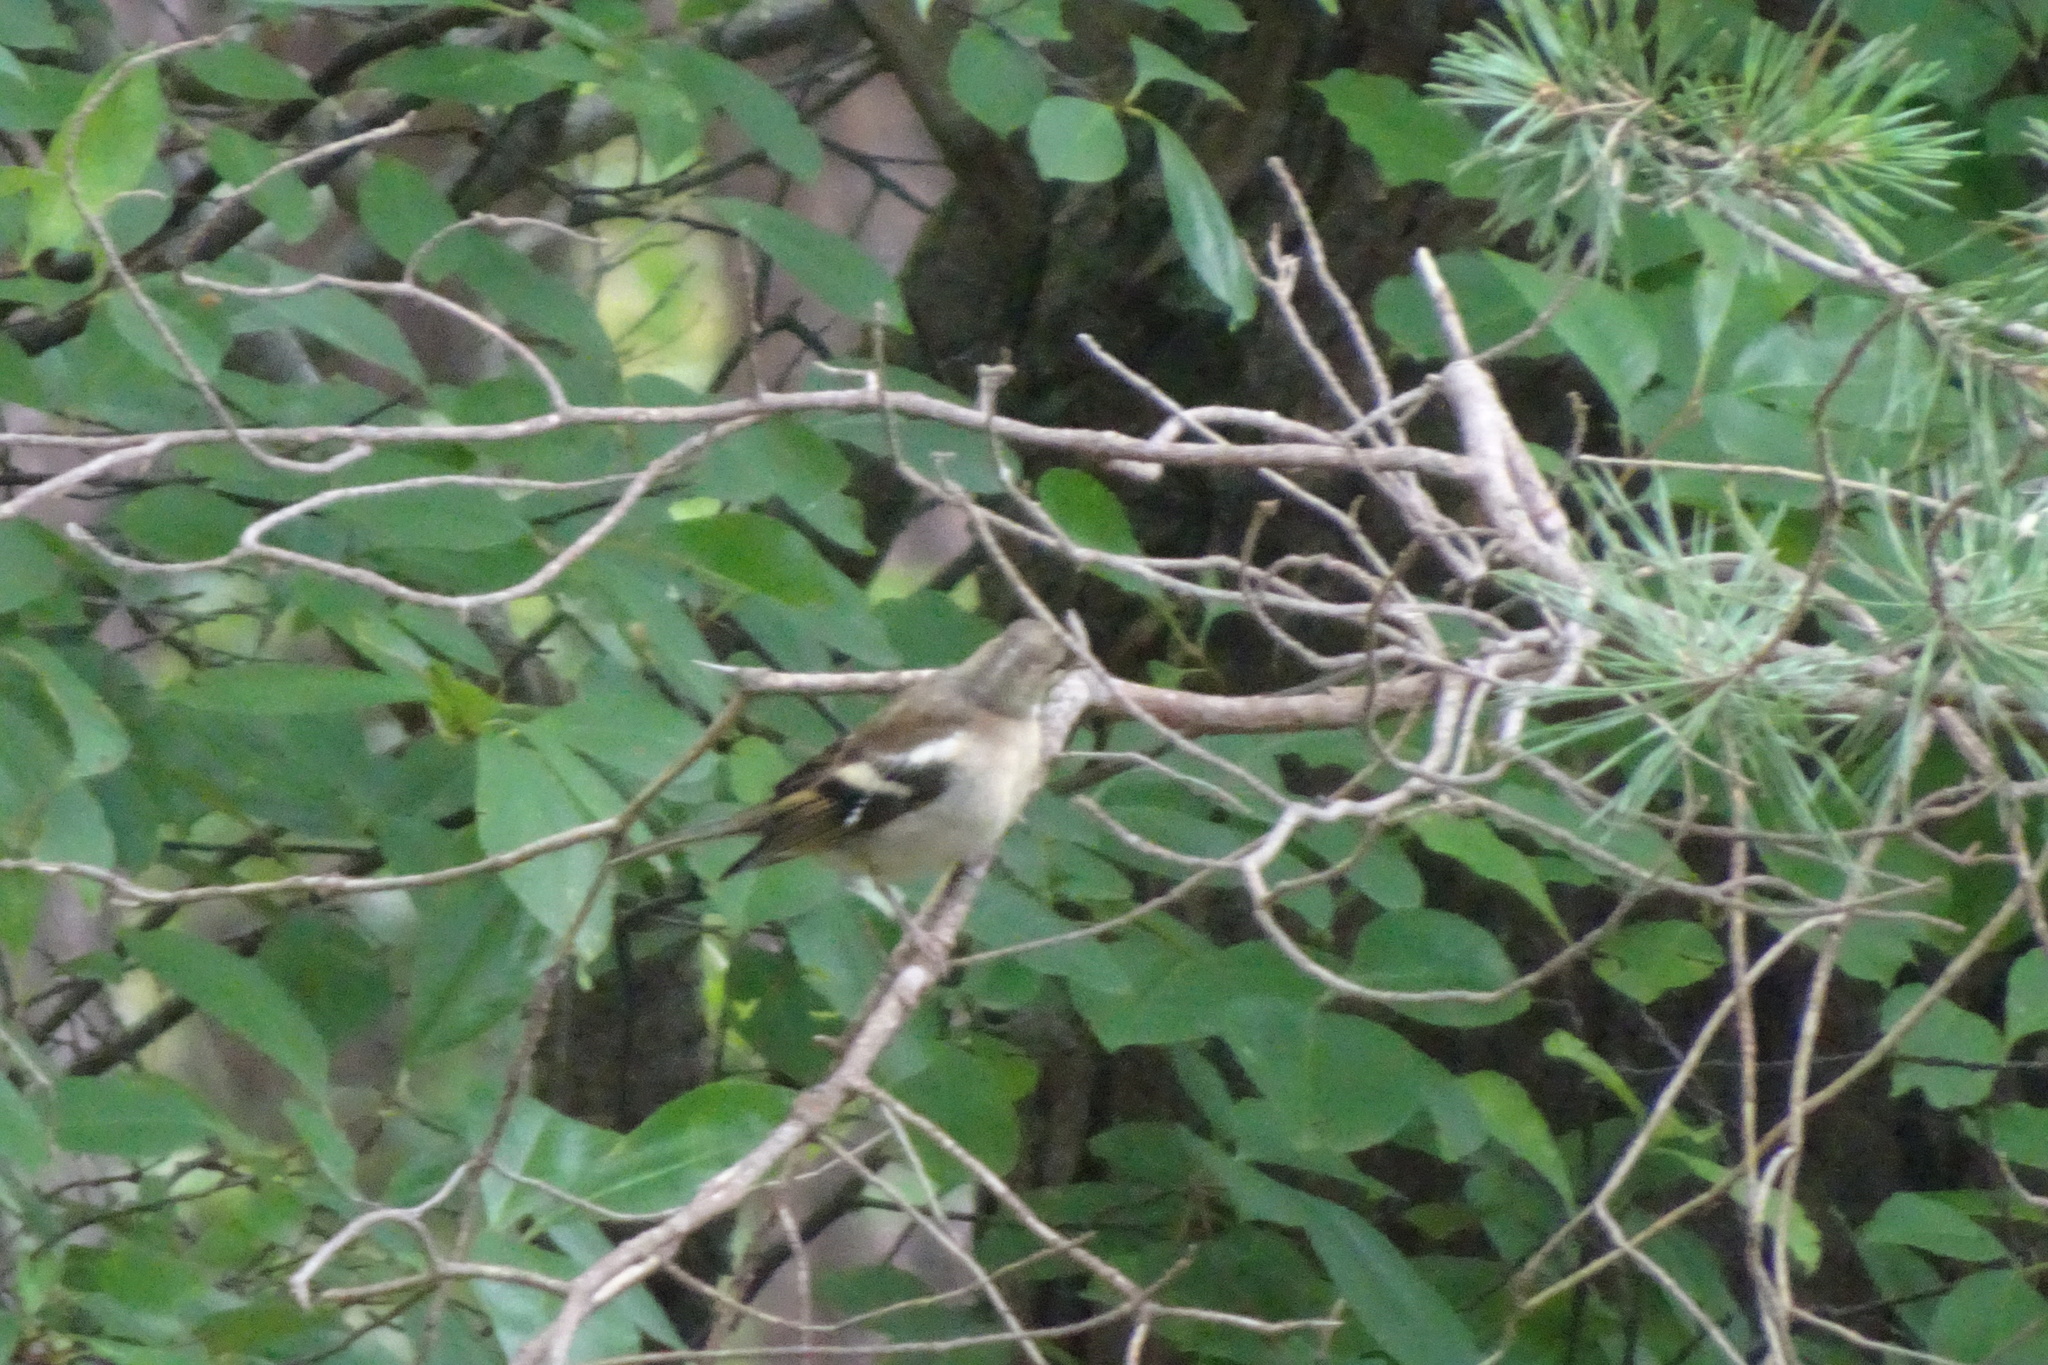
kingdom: Animalia
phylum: Chordata
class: Aves
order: Passeriformes
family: Fringillidae
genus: Fringilla
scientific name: Fringilla coelebs
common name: Common chaffinch
